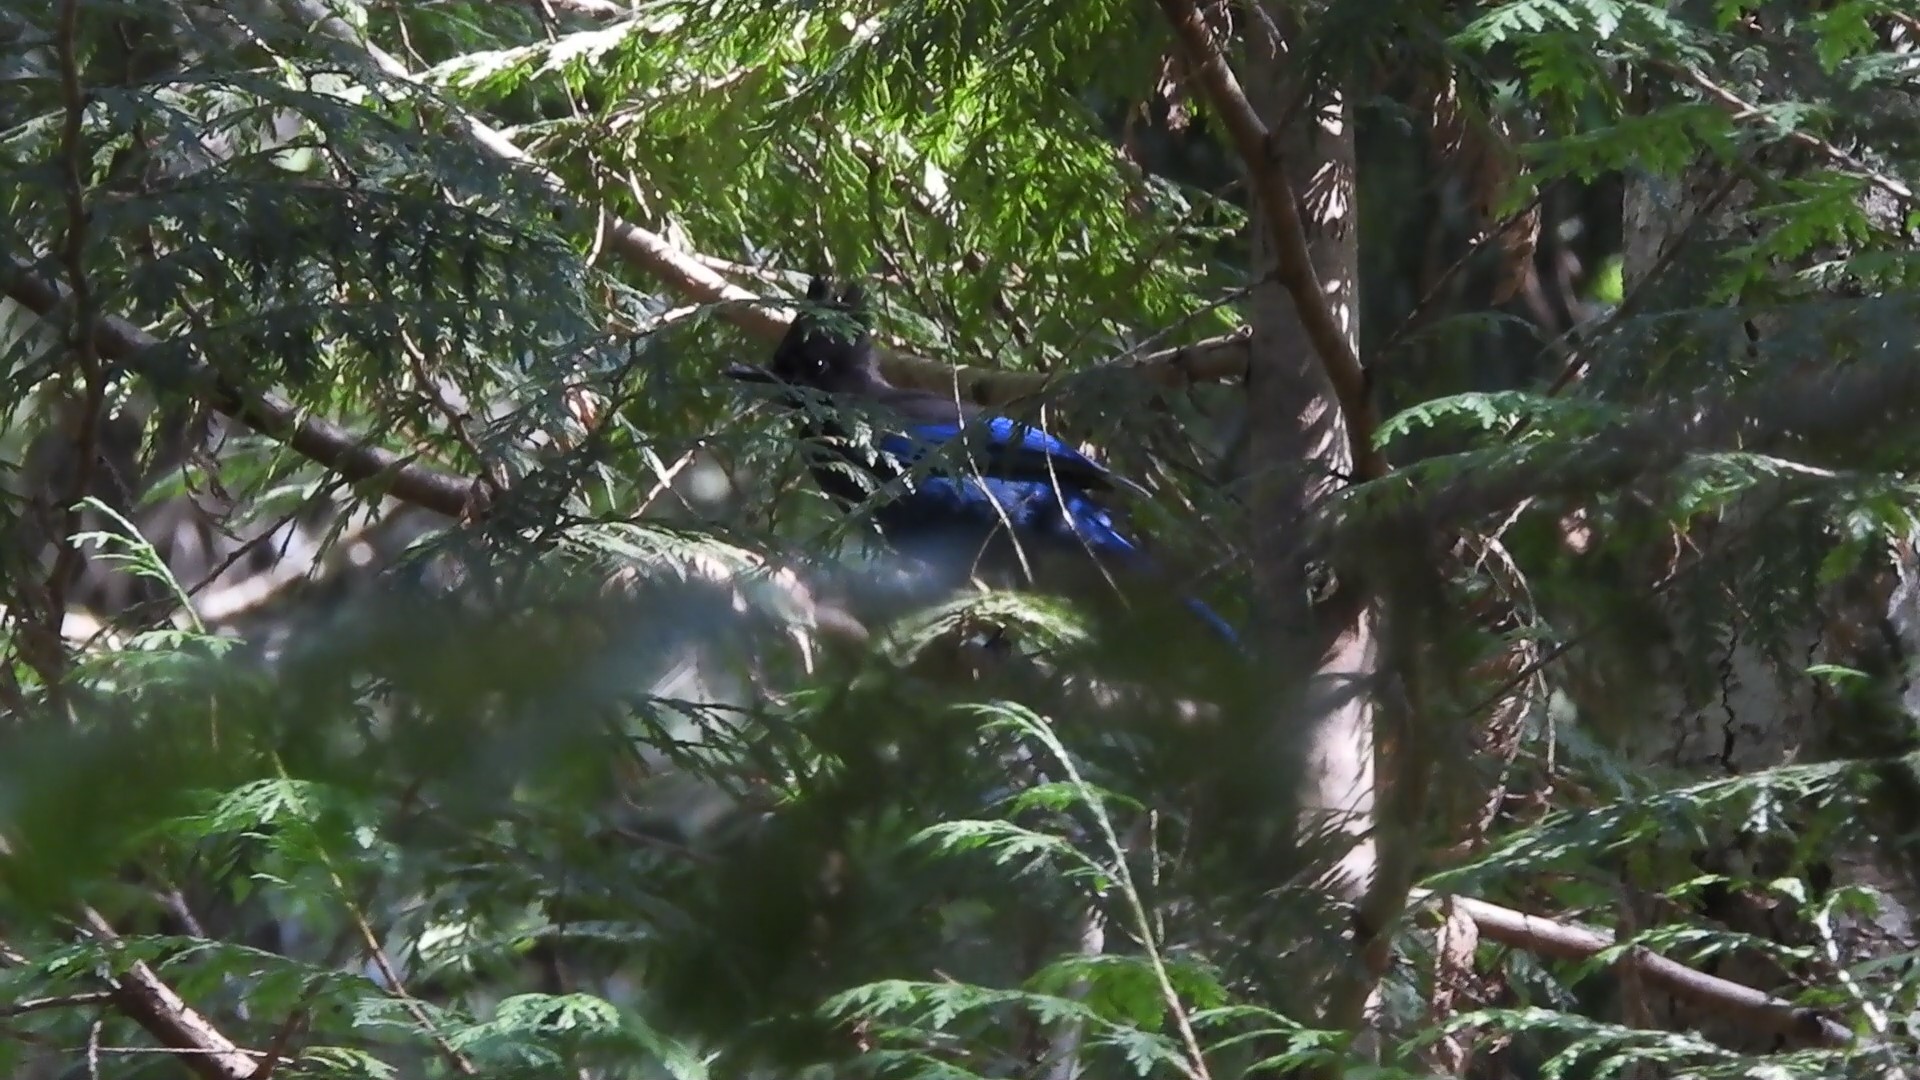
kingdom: Animalia
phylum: Chordata
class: Aves
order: Passeriformes
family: Corvidae
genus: Cyanocitta
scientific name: Cyanocitta stelleri
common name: Steller's jay
